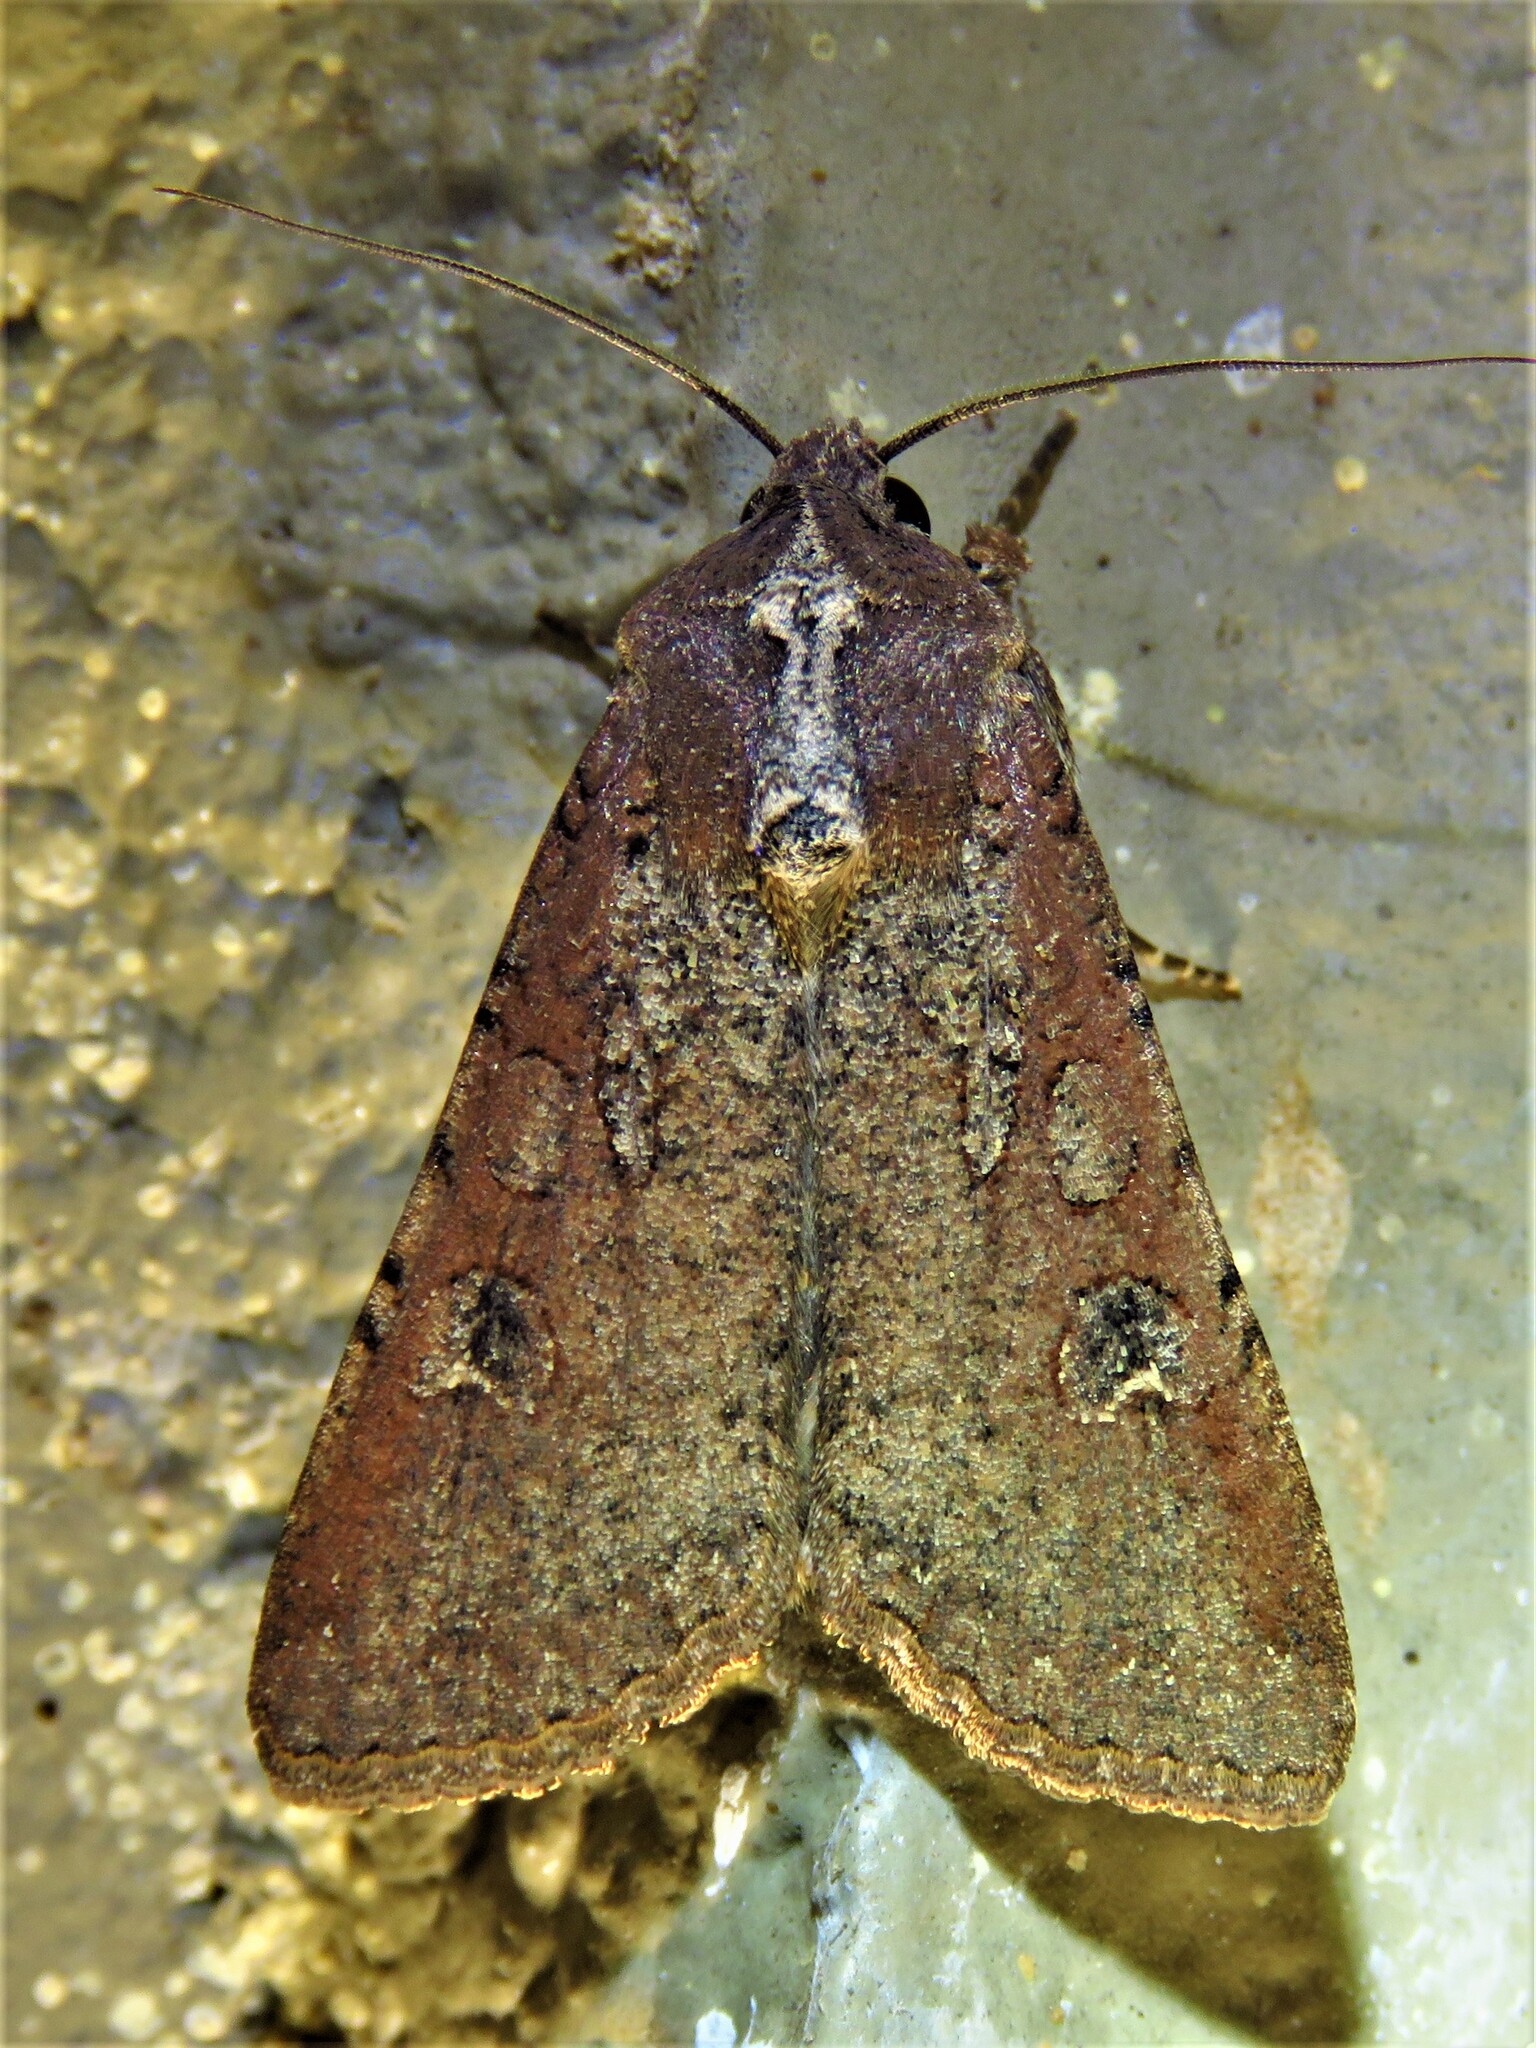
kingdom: Animalia
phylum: Arthropoda
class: Insecta
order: Lepidoptera
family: Noctuidae
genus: Peridroma
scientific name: Peridroma saucia
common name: Pearly underwing
